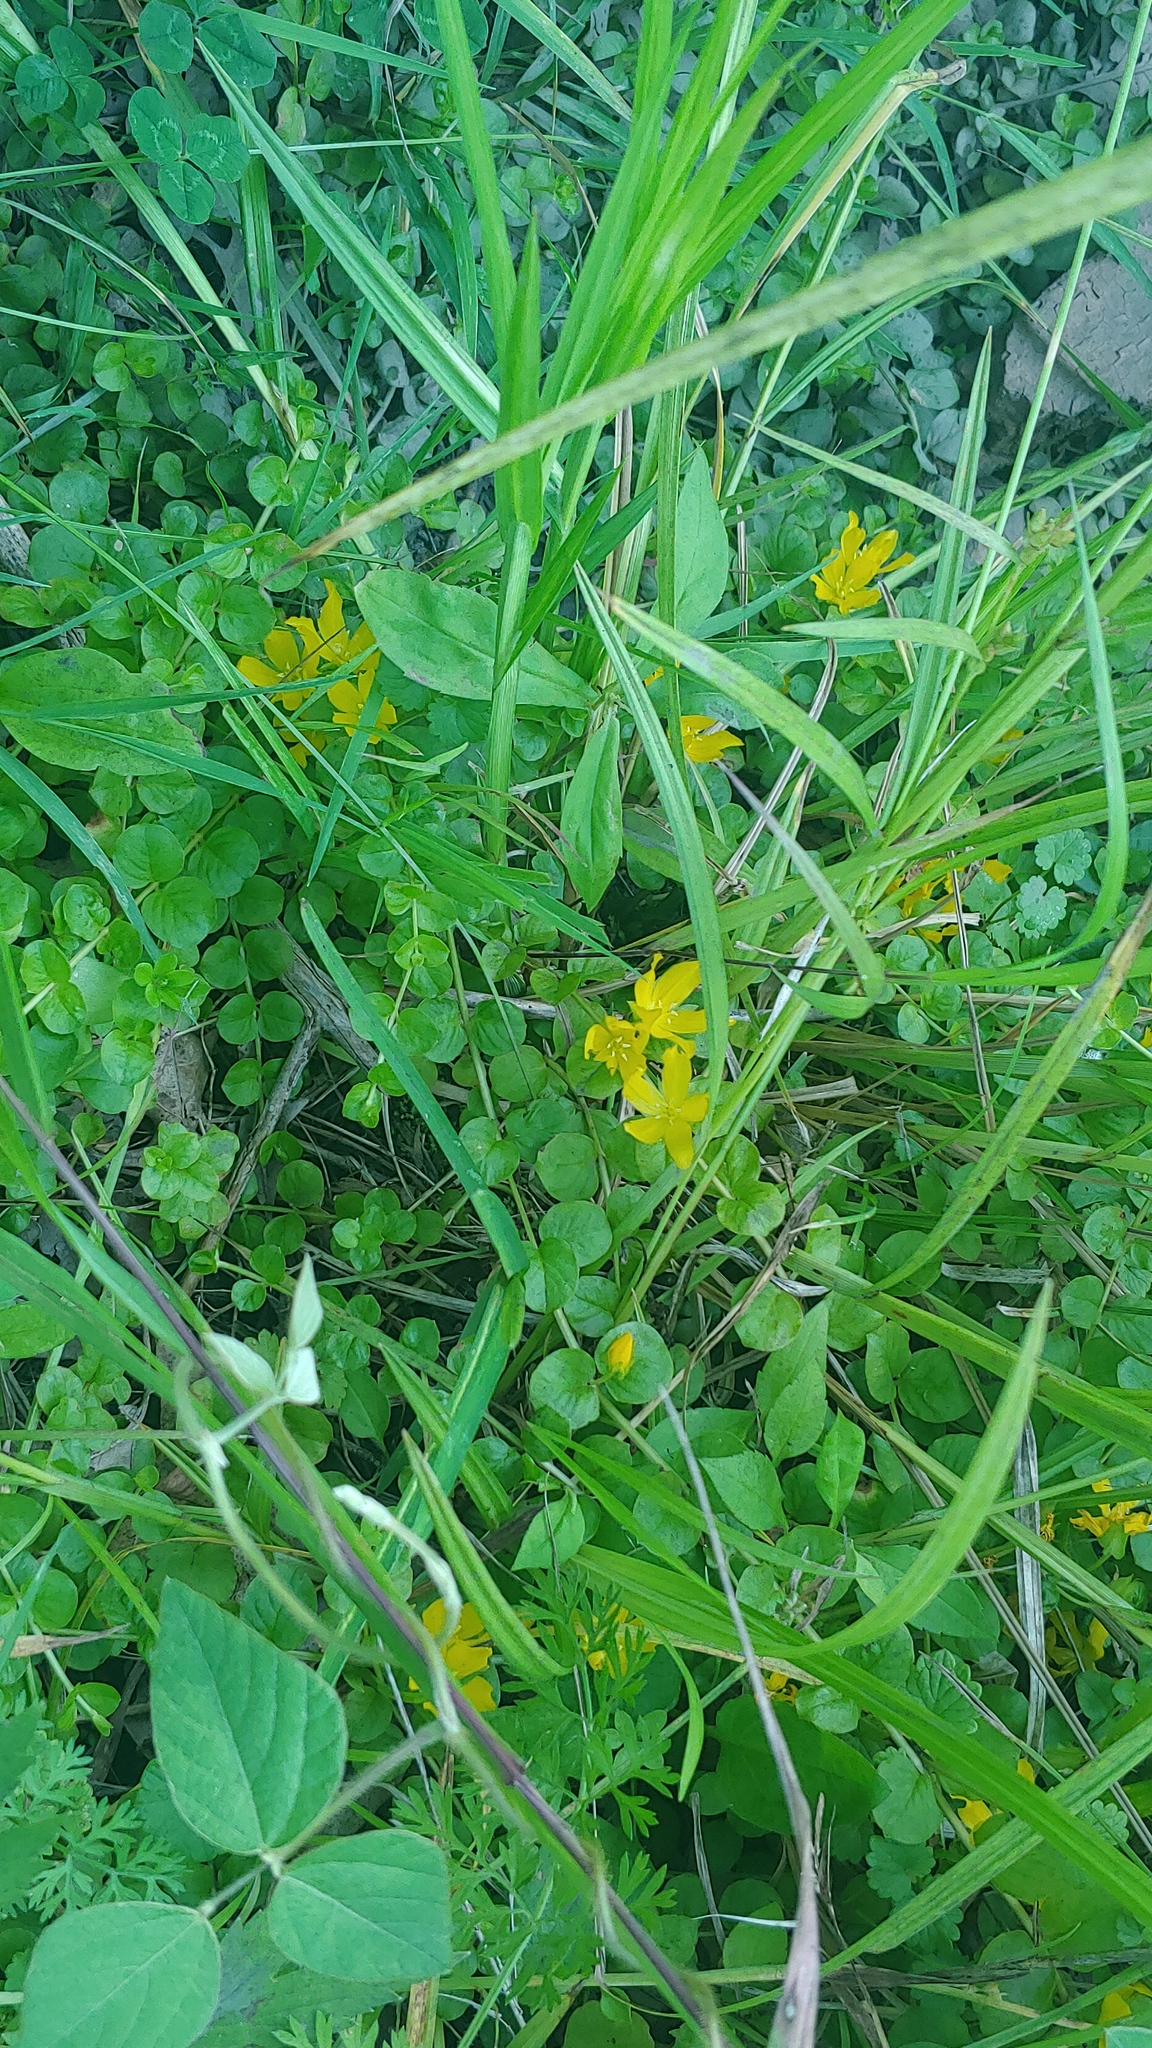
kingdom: Plantae
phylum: Tracheophyta
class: Magnoliopsida
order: Ericales
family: Primulaceae
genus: Lysimachia
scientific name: Lysimachia nummularia
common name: Moneywort
